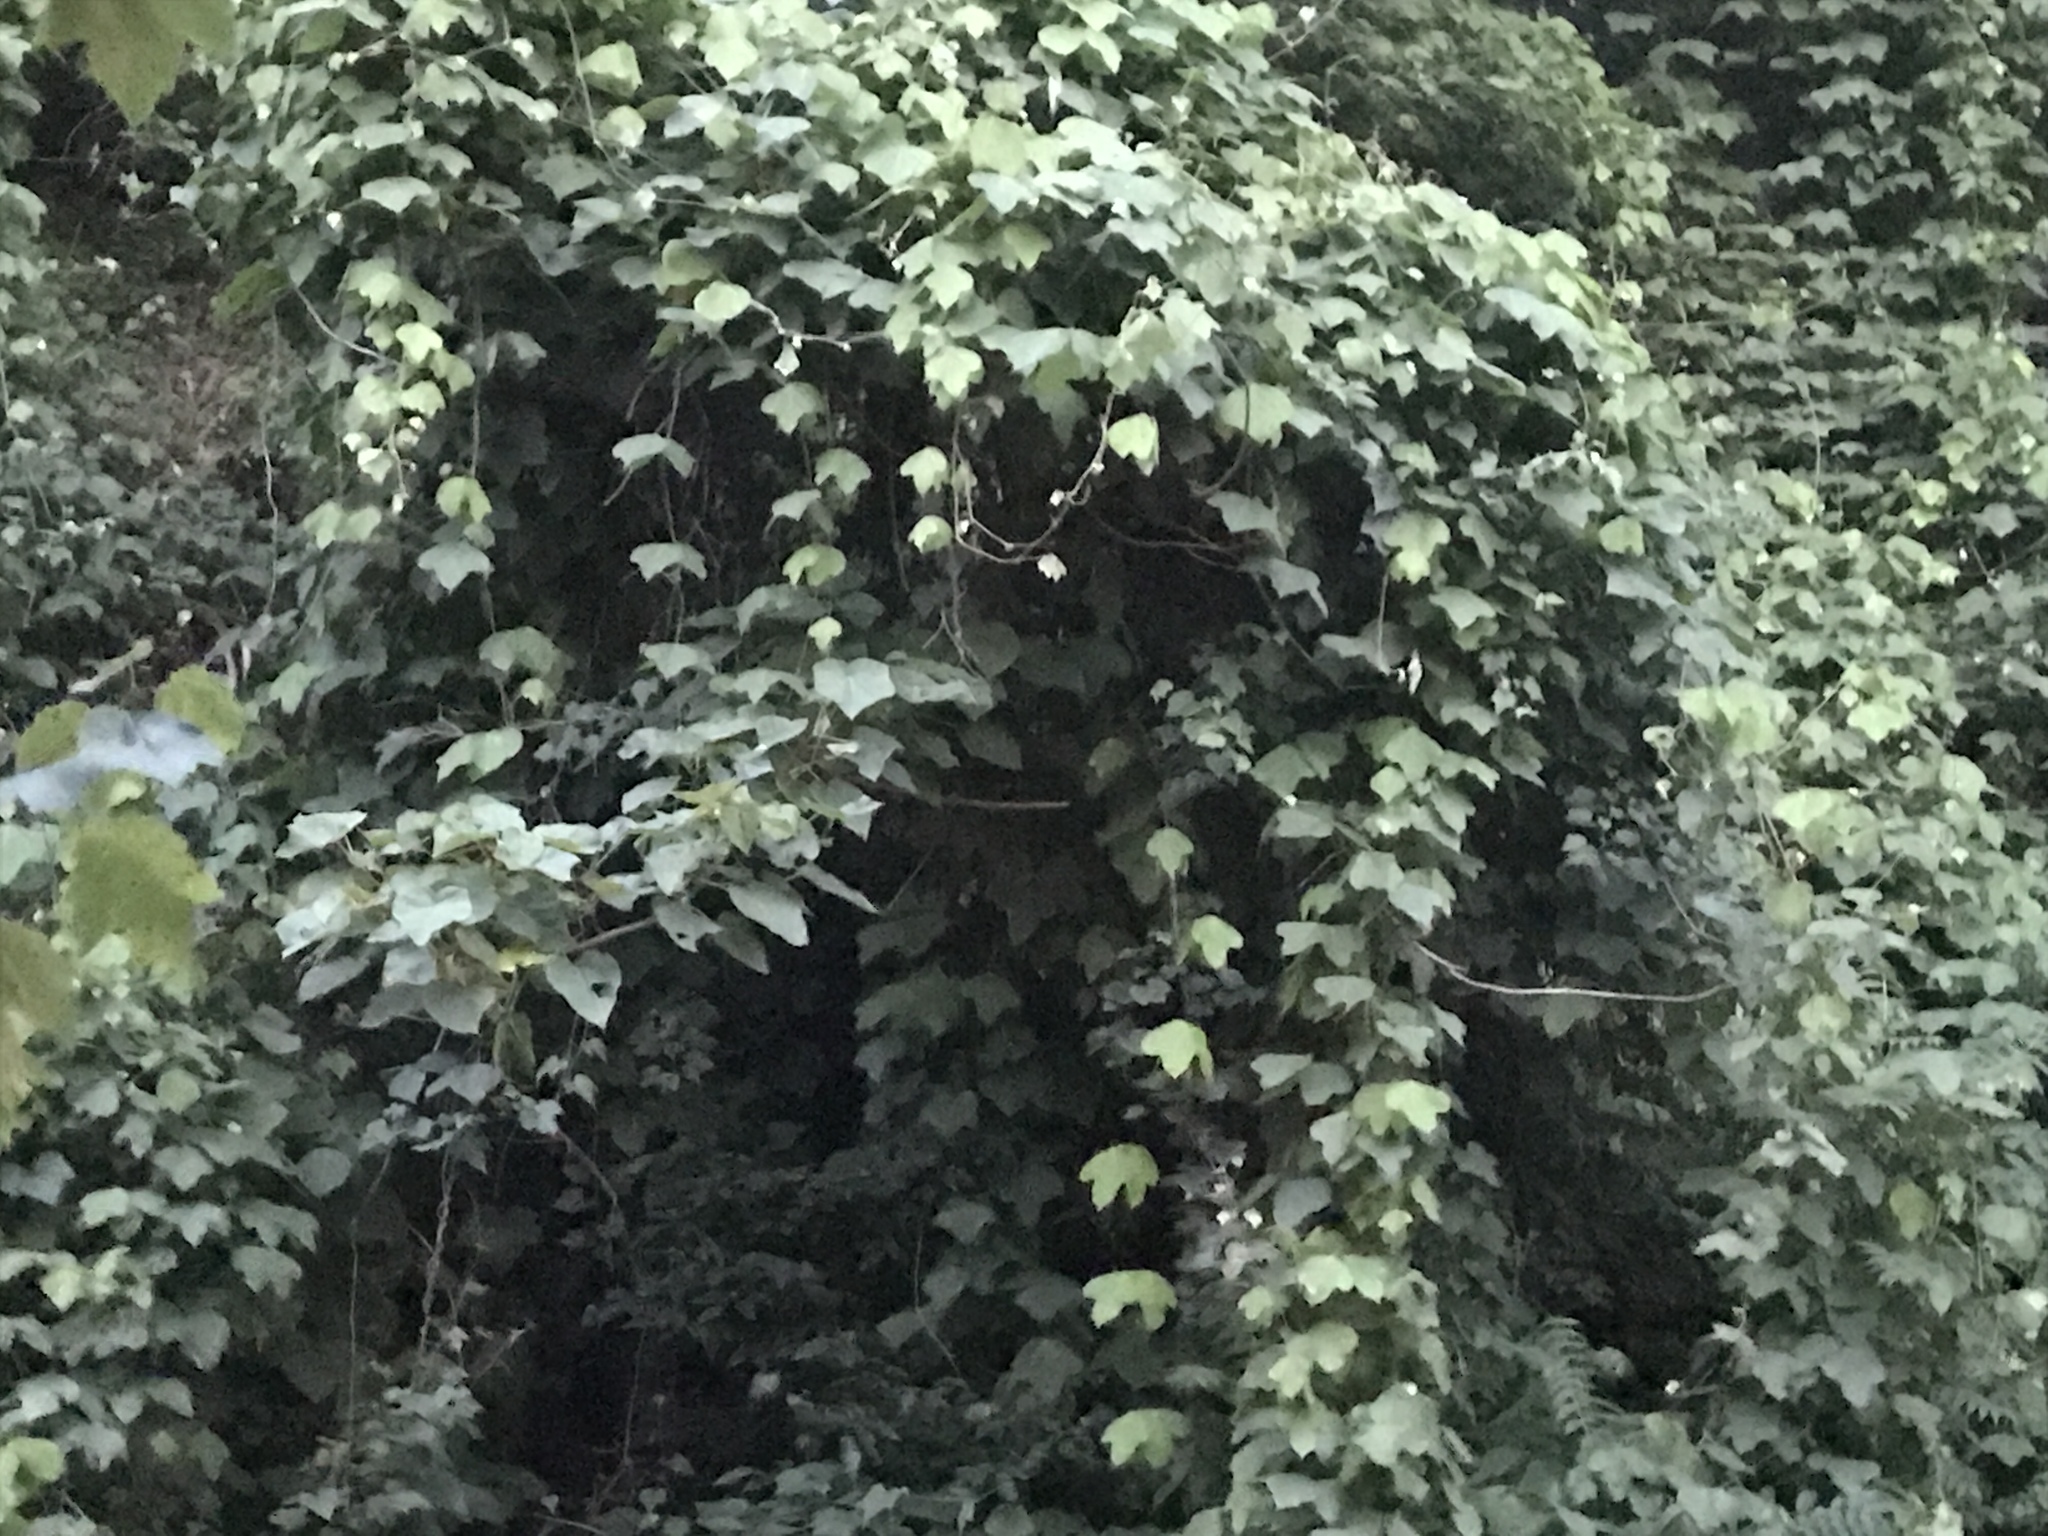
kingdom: Plantae
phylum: Tracheophyta
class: Magnoliopsida
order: Fabales
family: Fabaceae
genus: Pueraria
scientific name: Pueraria montana
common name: Kudzu
